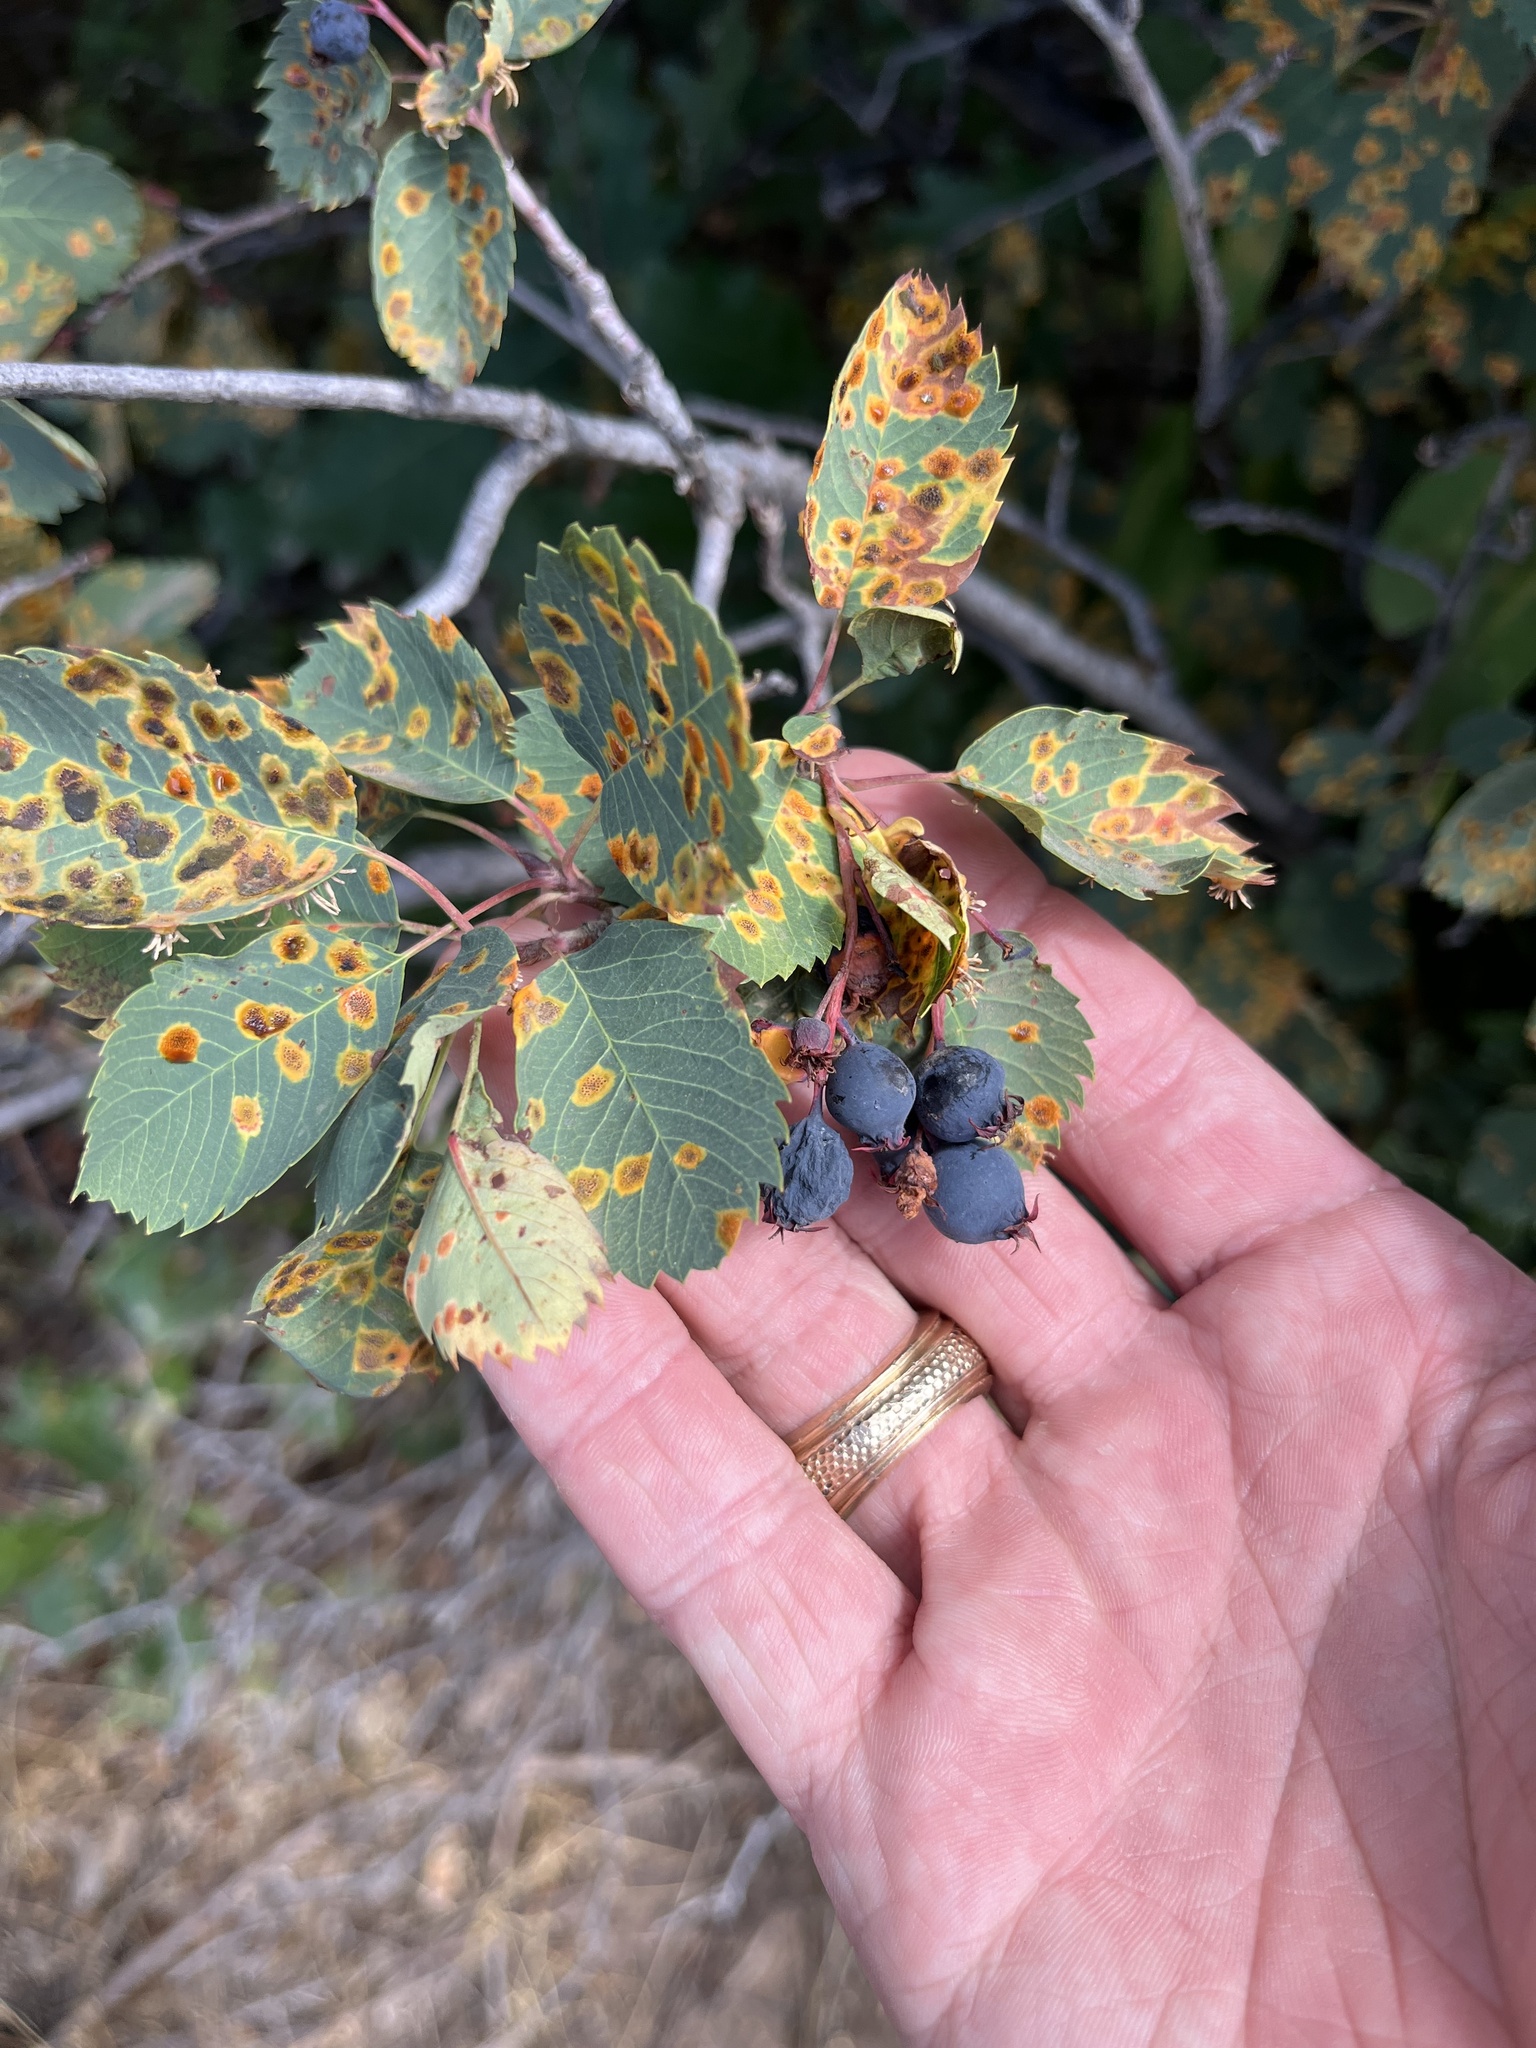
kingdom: Plantae
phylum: Tracheophyta
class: Magnoliopsida
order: Rosales
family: Rosaceae
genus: Amelanchier
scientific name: Amelanchier alnifolia
